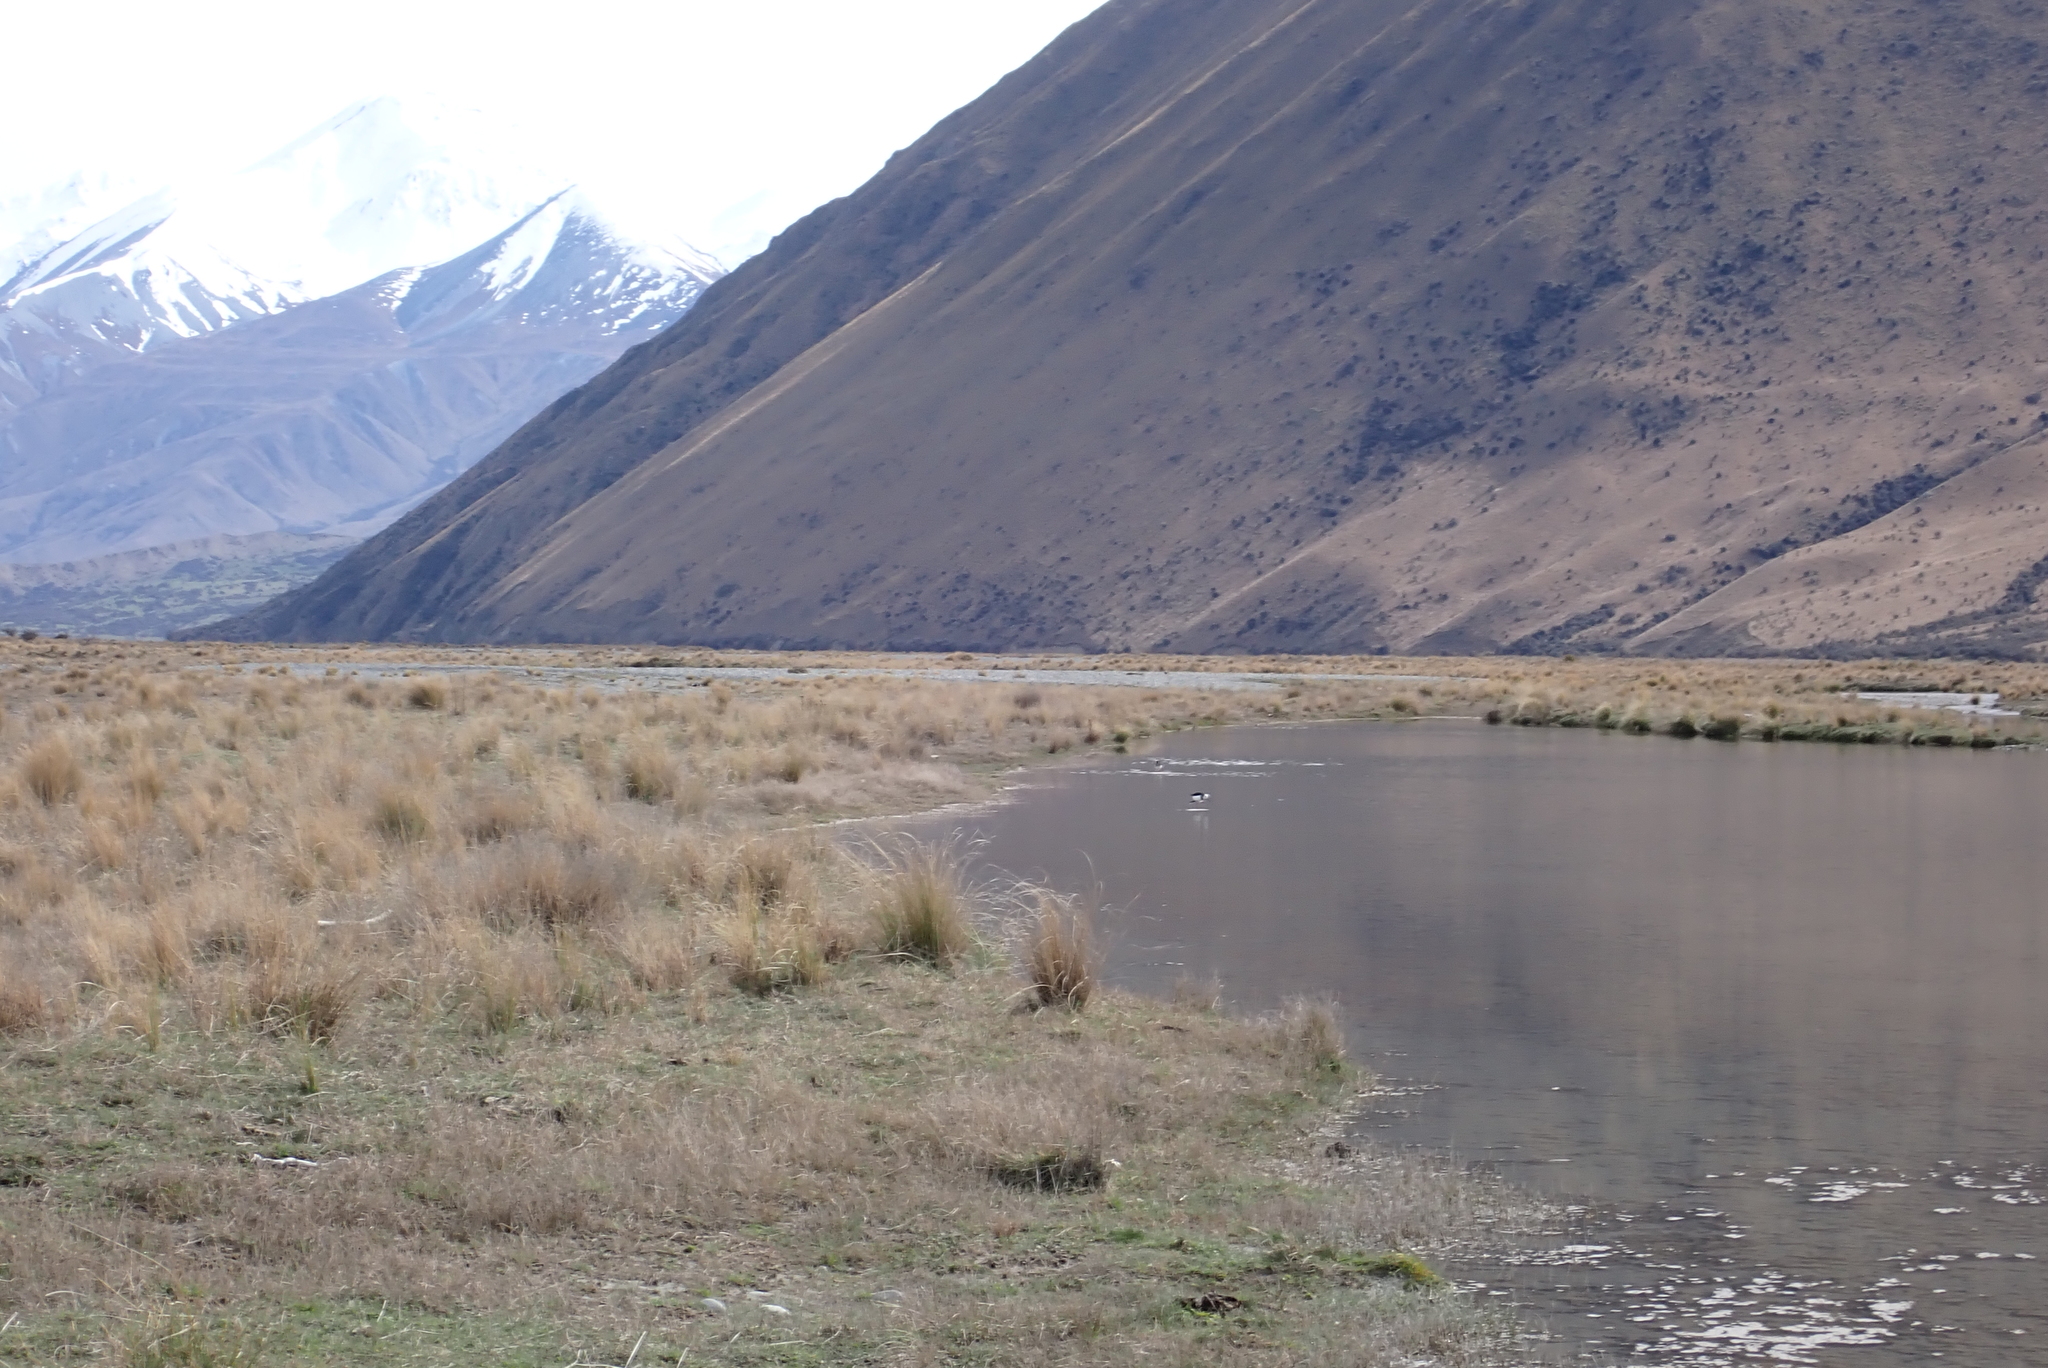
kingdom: Animalia
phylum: Chordata
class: Aves
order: Charadriiformes
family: Charadriidae
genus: Anarhynchus
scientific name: Anarhynchus frontalis
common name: Wrybill
